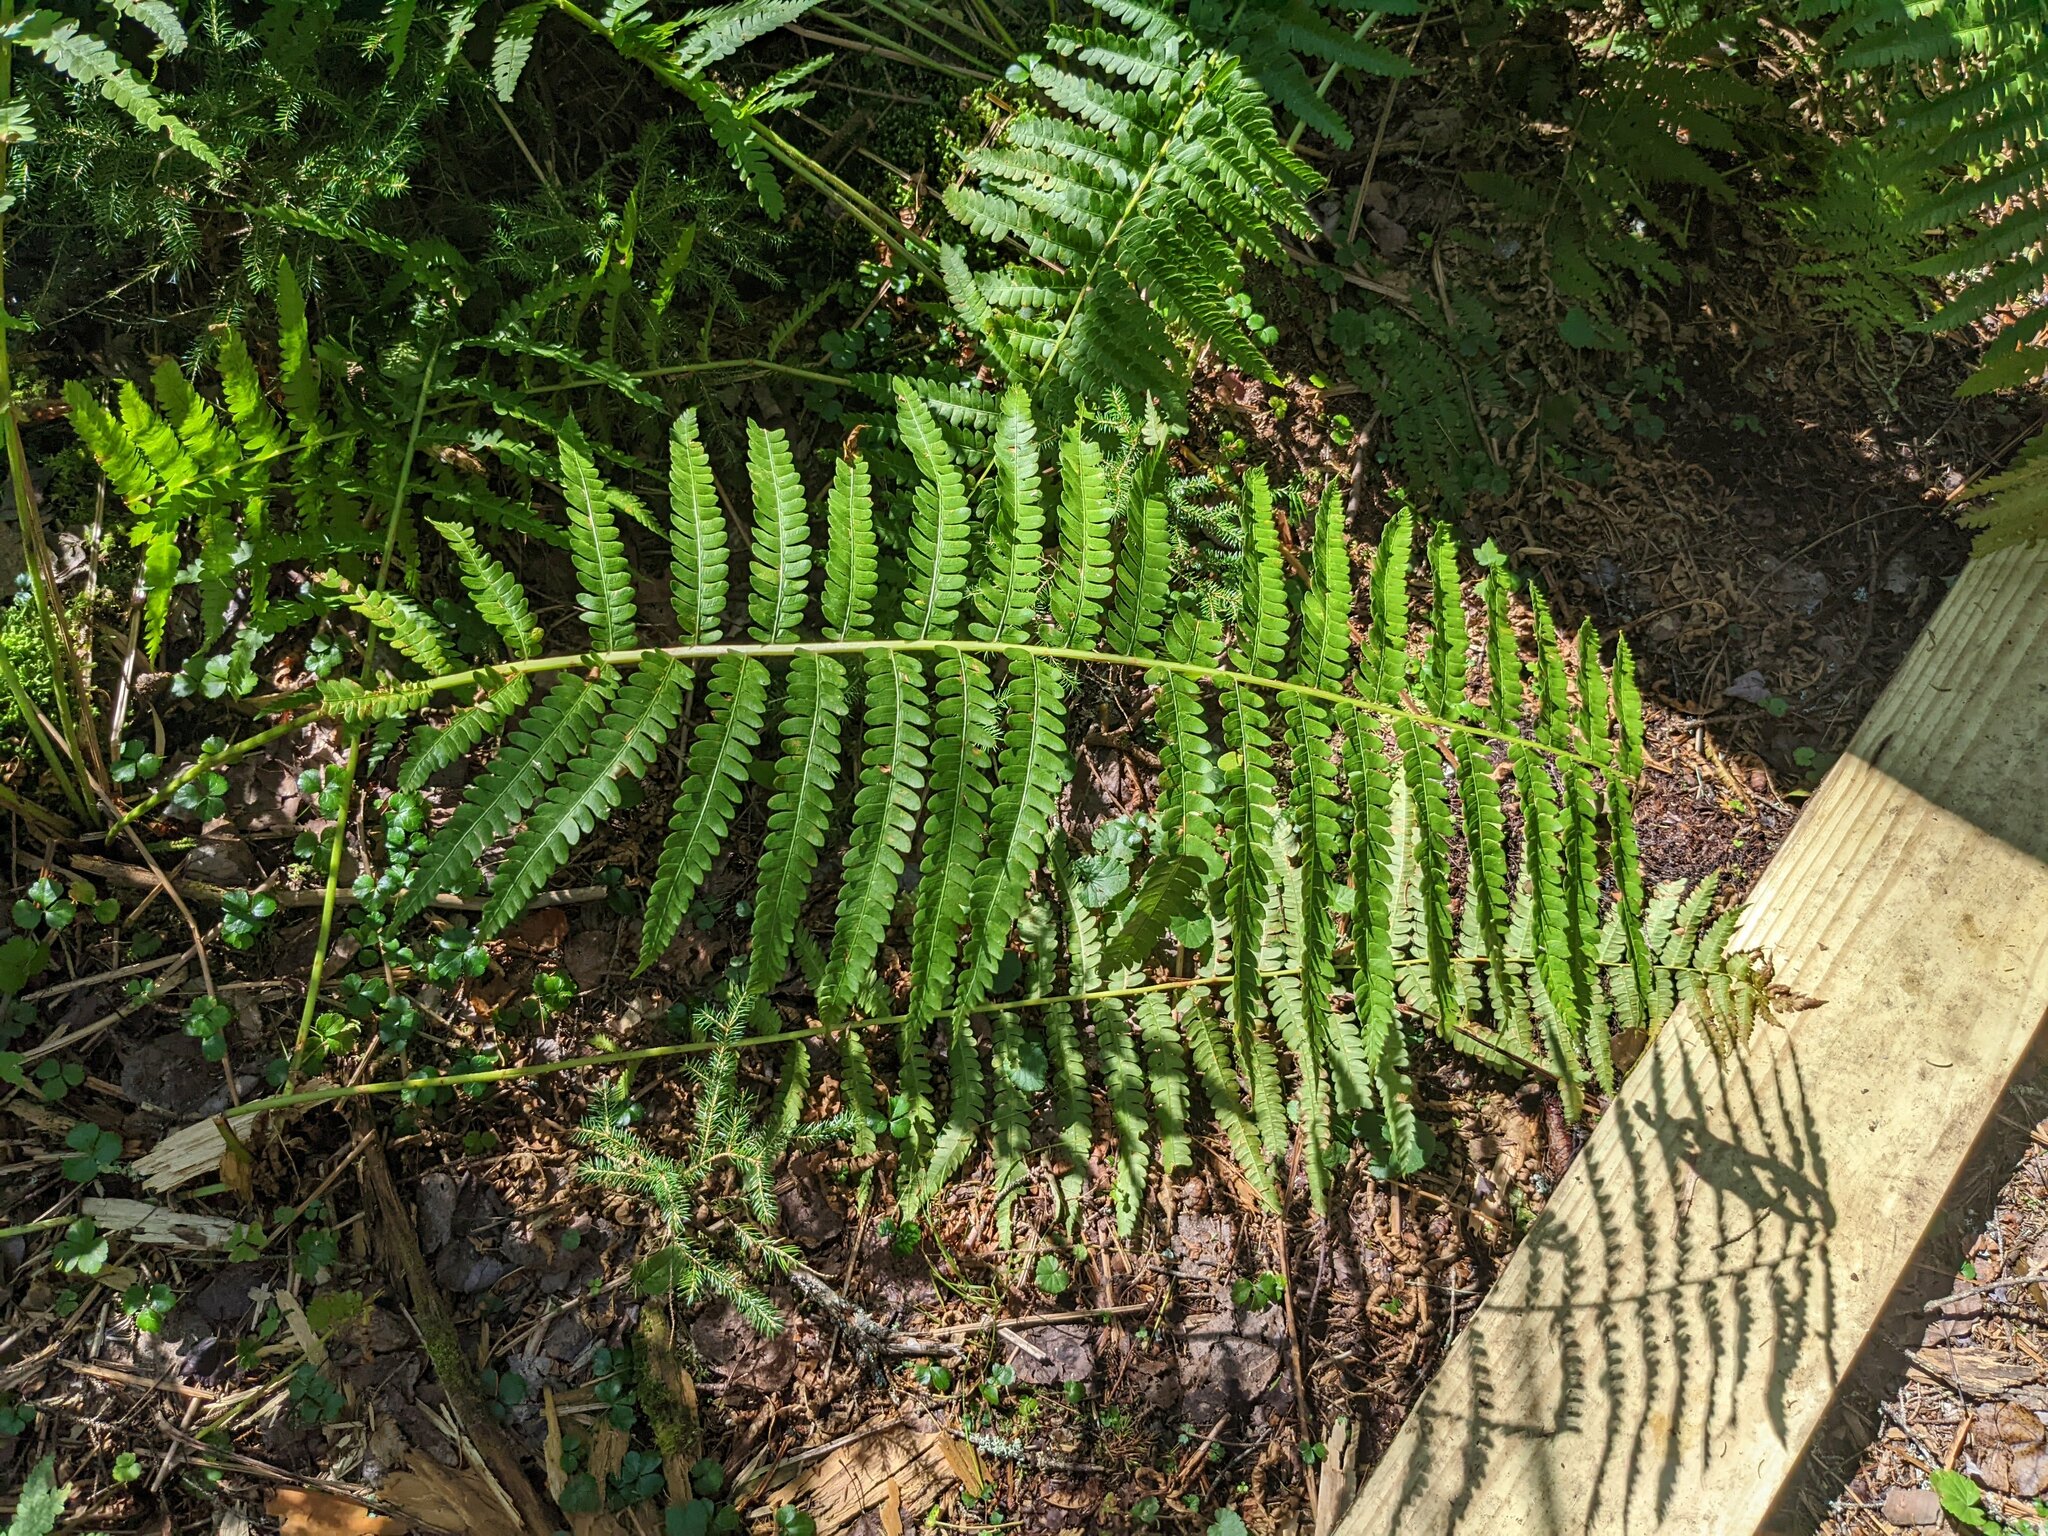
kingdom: Plantae
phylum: Tracheophyta
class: Polypodiopsida
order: Osmundales
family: Osmundaceae
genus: Osmundastrum
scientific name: Osmundastrum cinnamomeum
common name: Cinnamon fern
